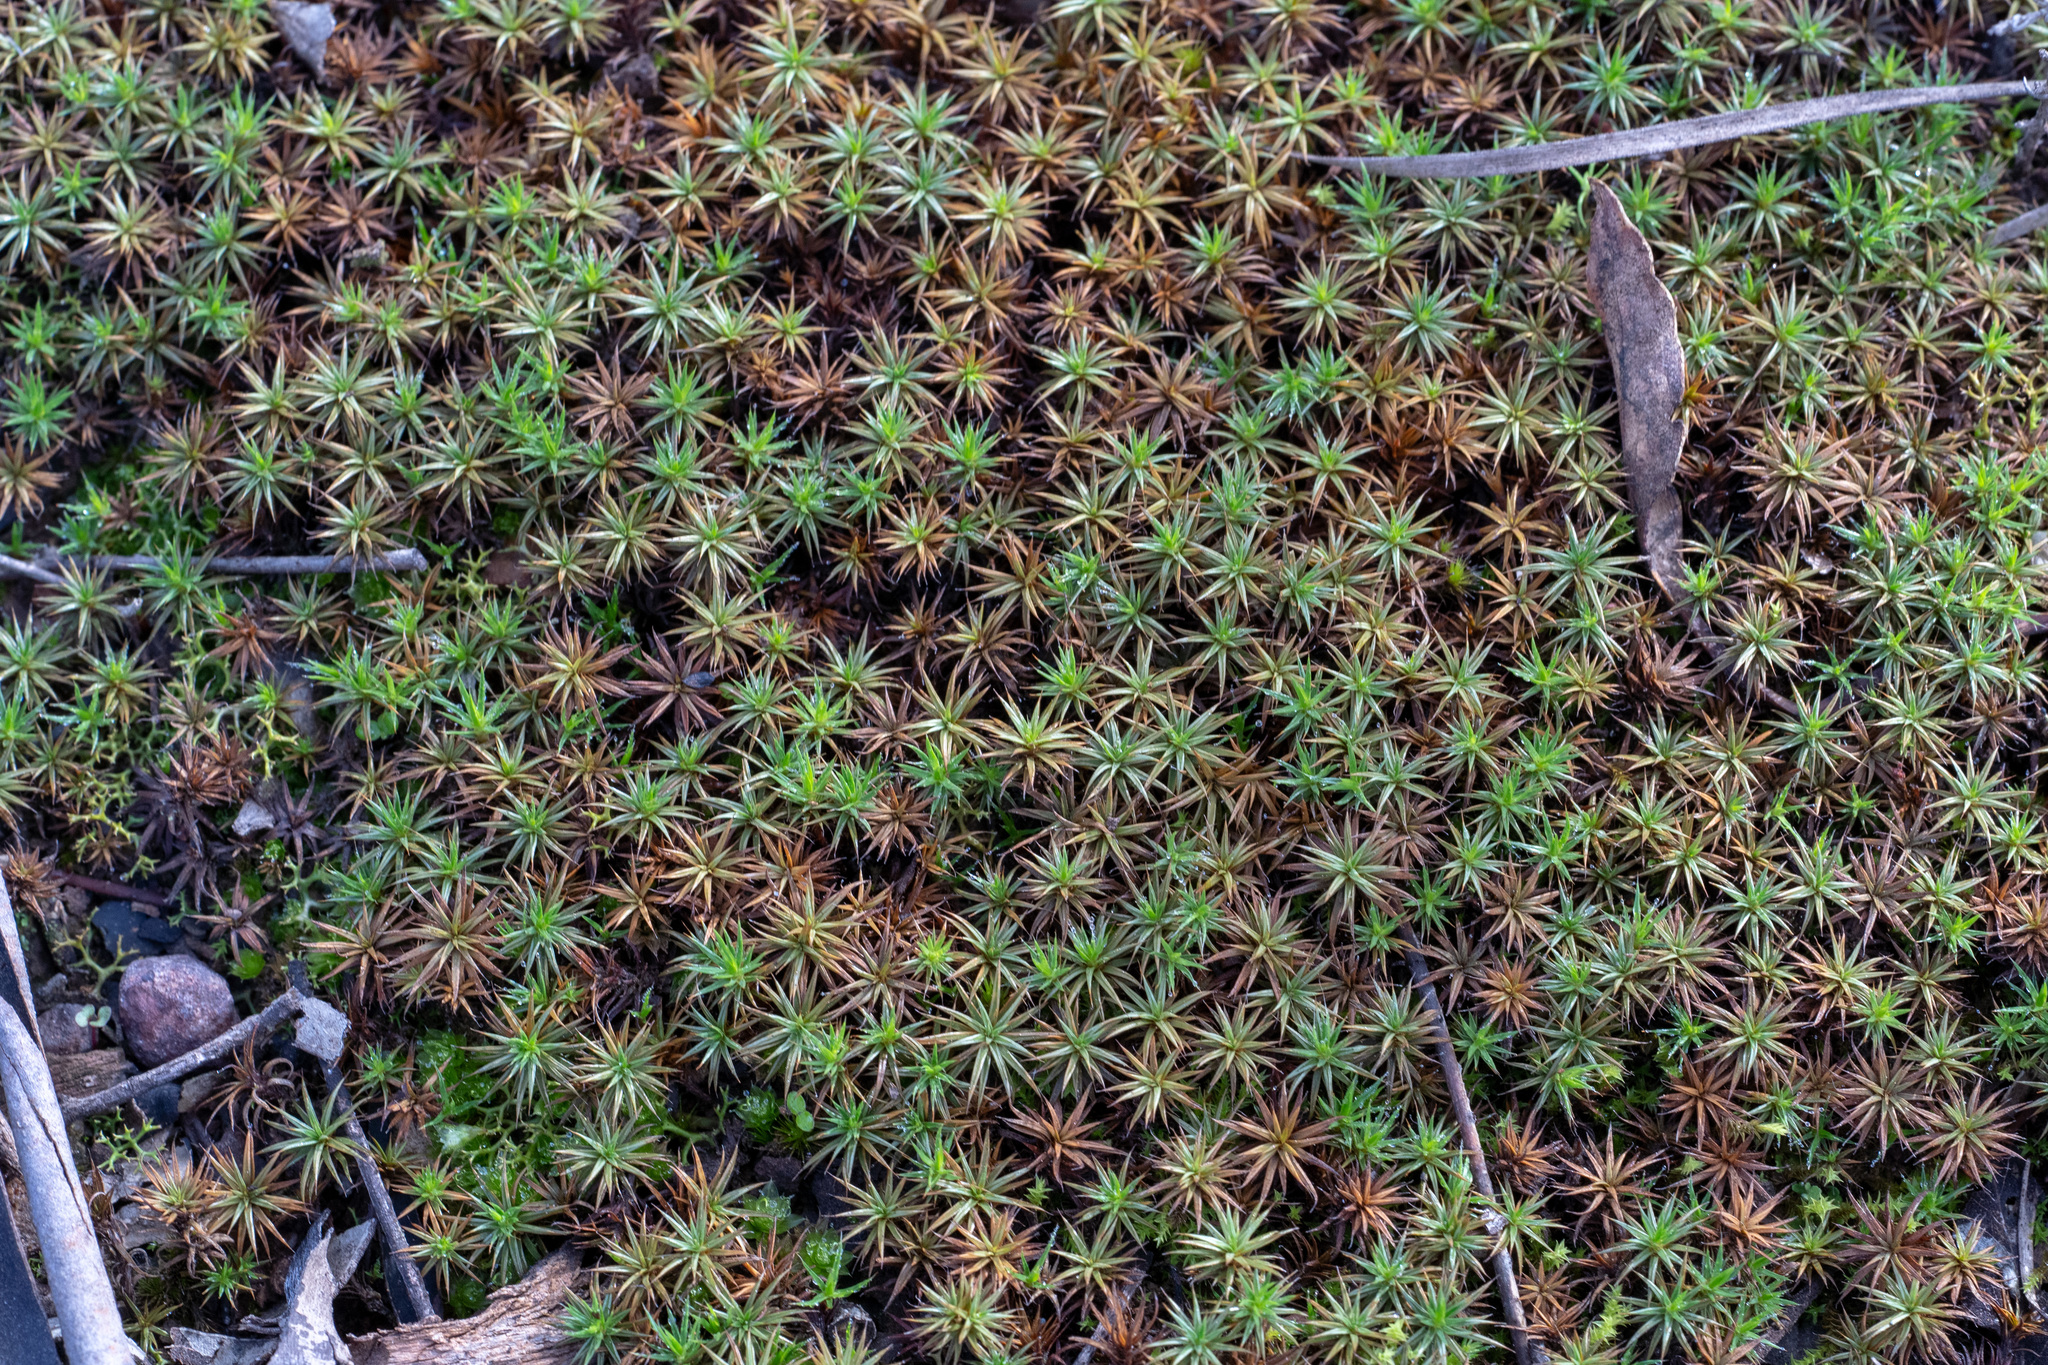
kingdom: Plantae
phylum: Bryophyta
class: Polytrichopsida
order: Polytrichales
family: Polytrichaceae
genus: Polytrichum
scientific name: Polytrichum juniperinum
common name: Juniper haircap moss
